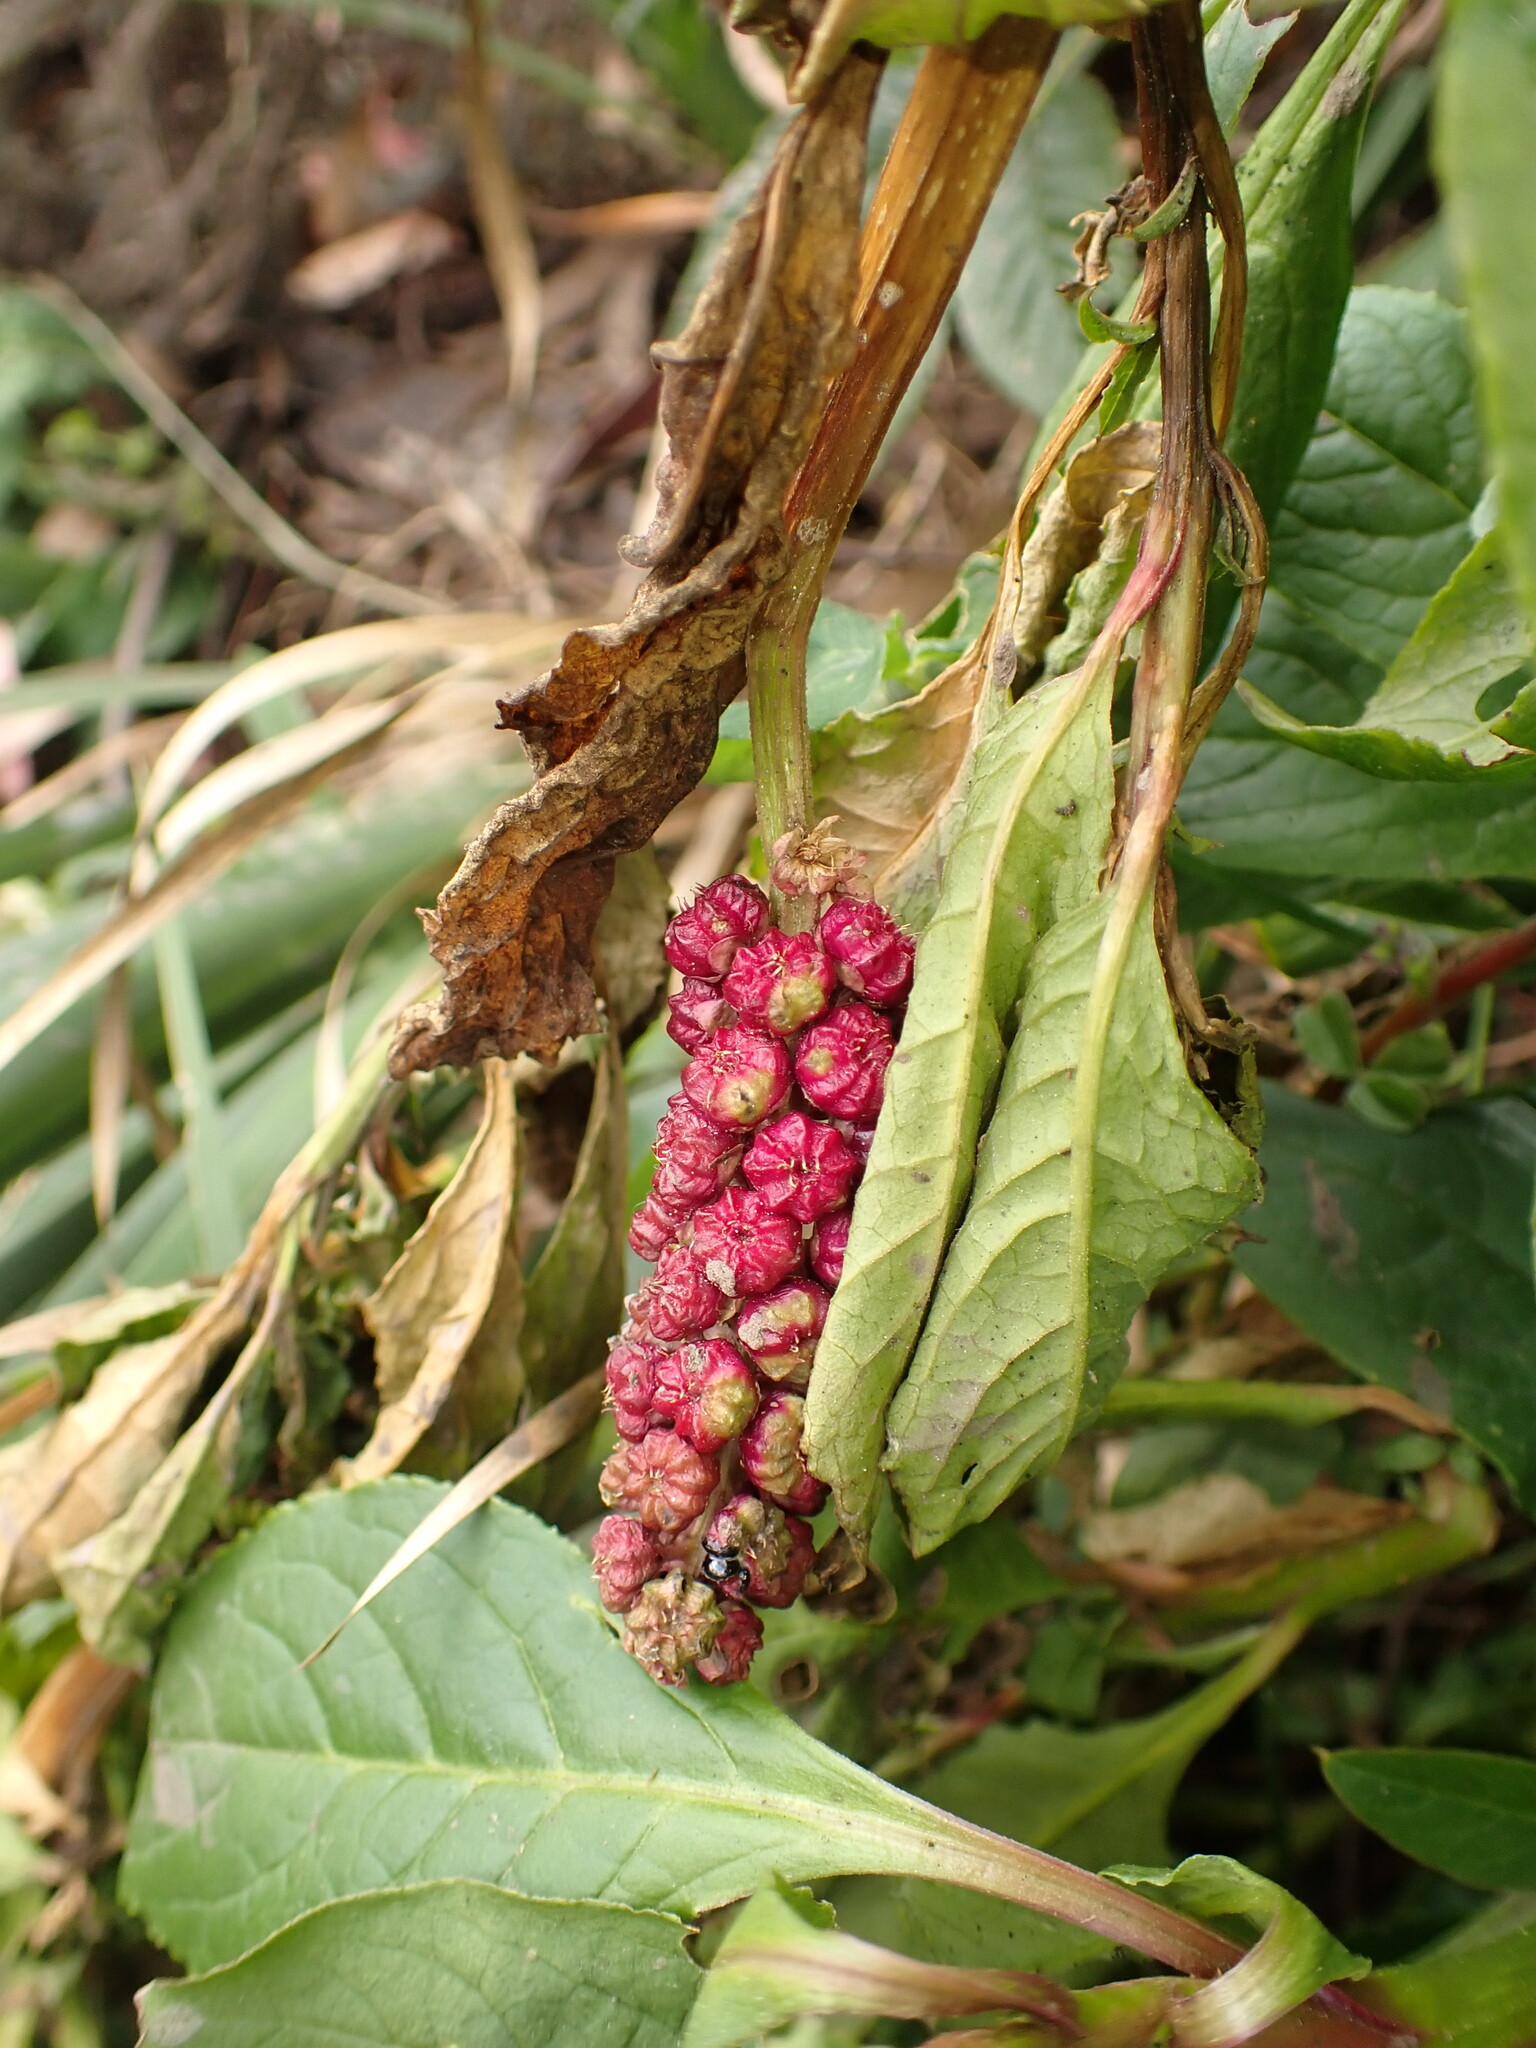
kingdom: Plantae
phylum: Tracheophyta
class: Magnoliopsida
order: Caryophyllales
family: Phytolaccaceae
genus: Phytolacca
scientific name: Phytolacca bogotensis
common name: Southern pokeweed
